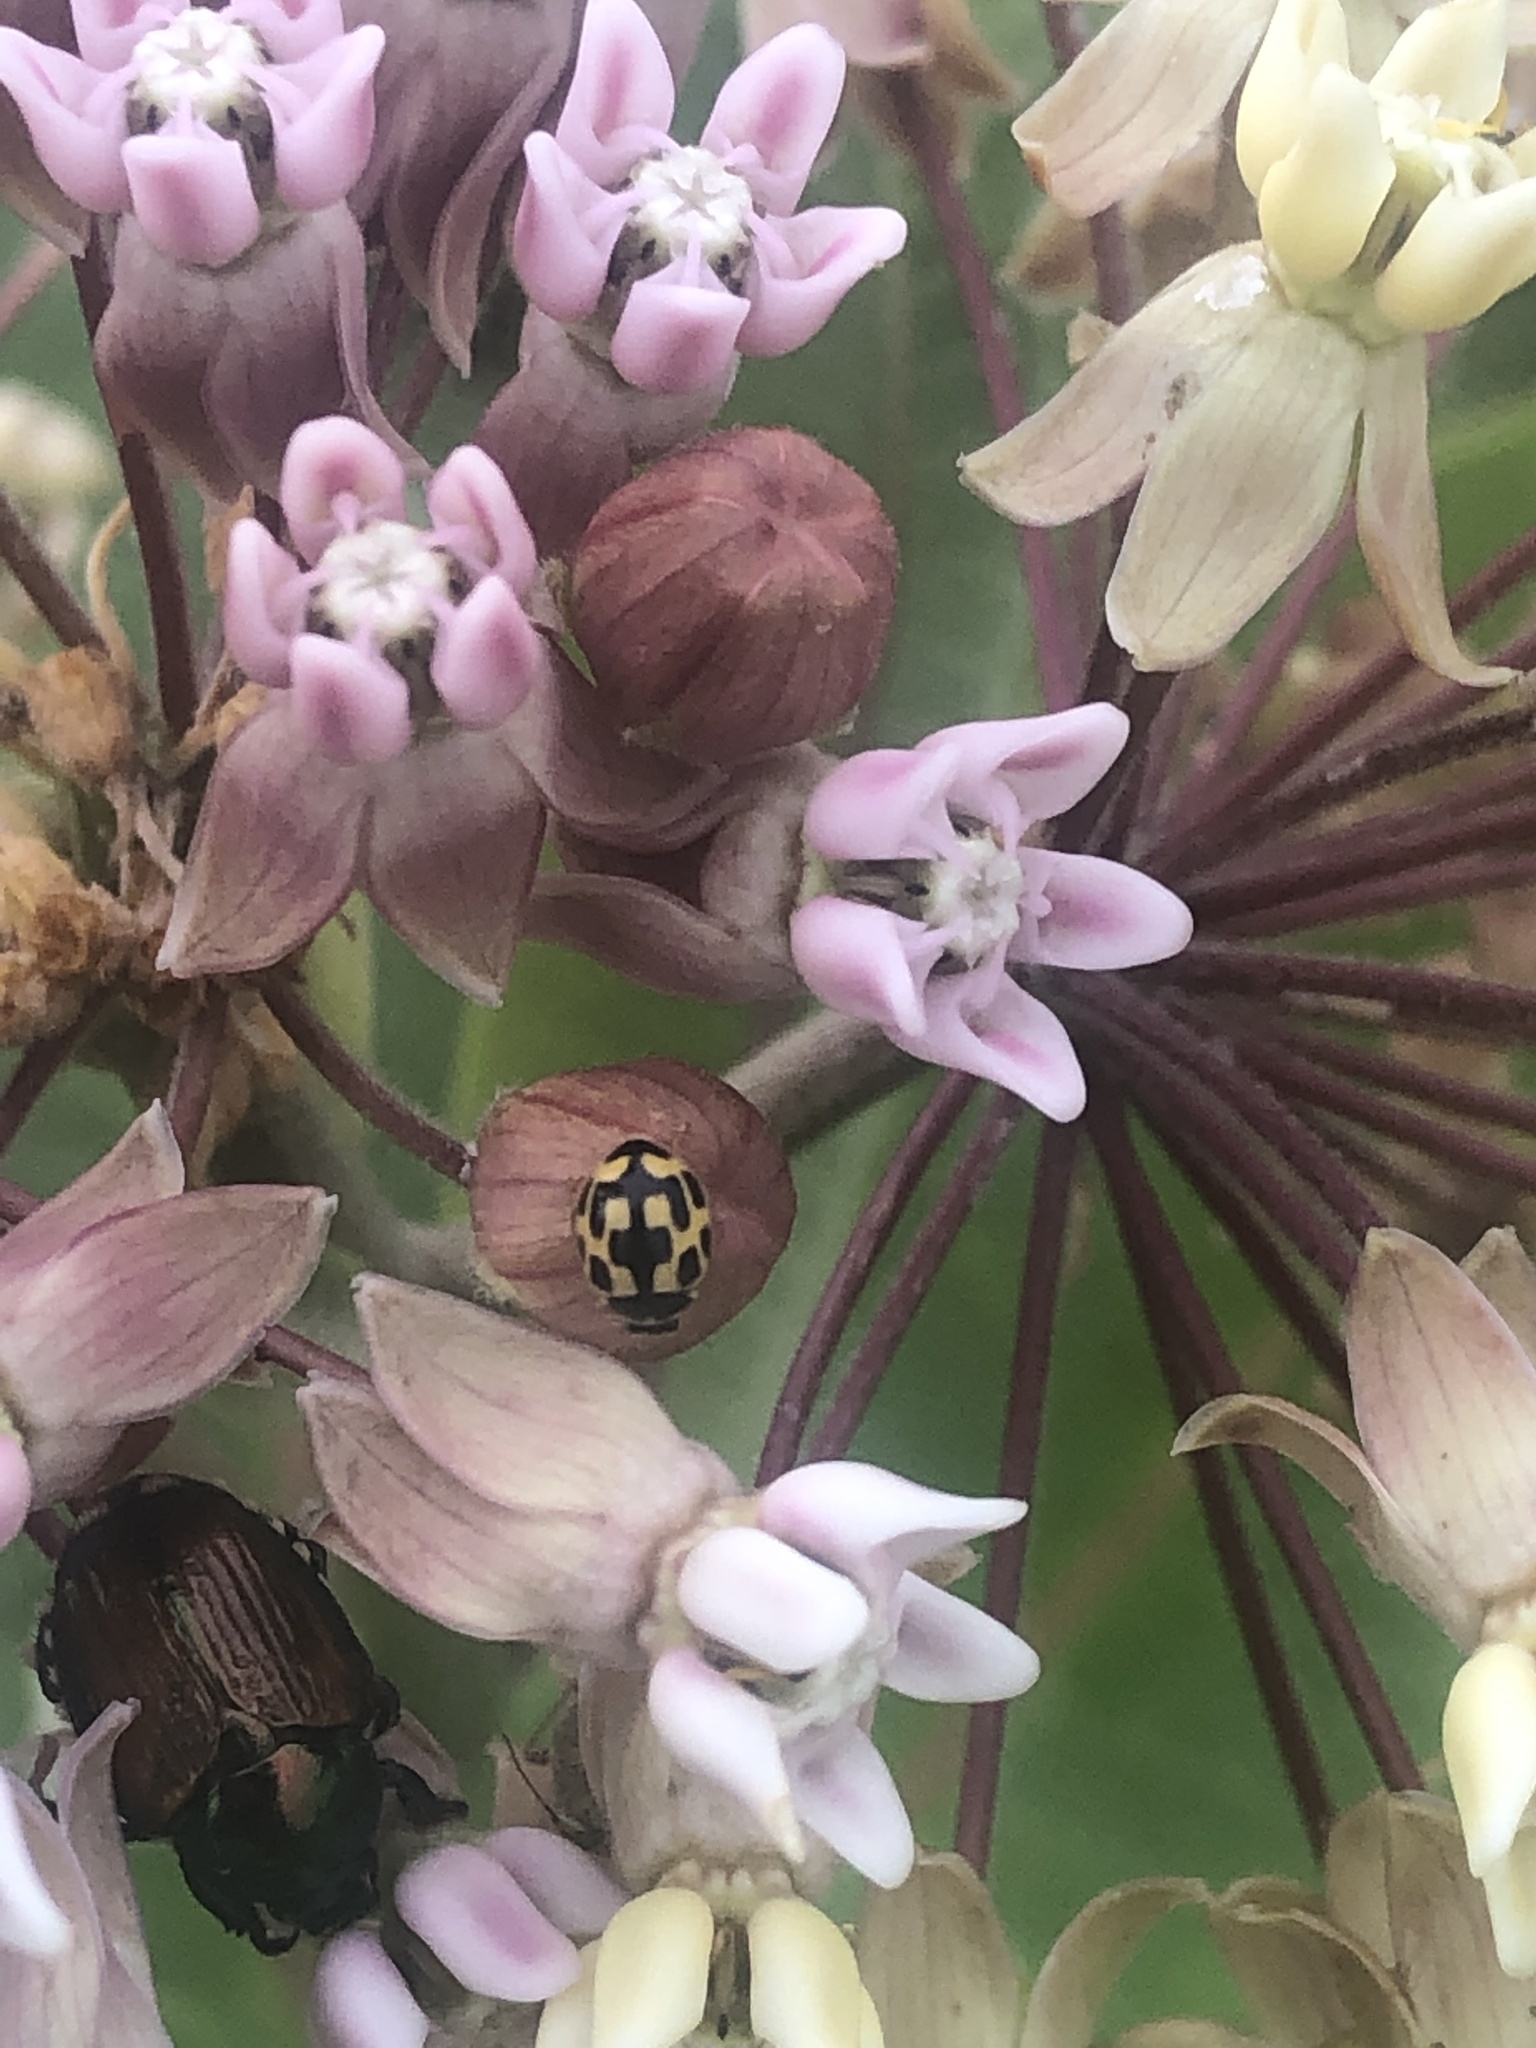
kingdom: Animalia
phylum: Arthropoda
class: Insecta
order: Coleoptera
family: Coccinellidae
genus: Propylaea
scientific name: Propylaea quatuordecimpunctata
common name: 14-spotted ladybird beetle
